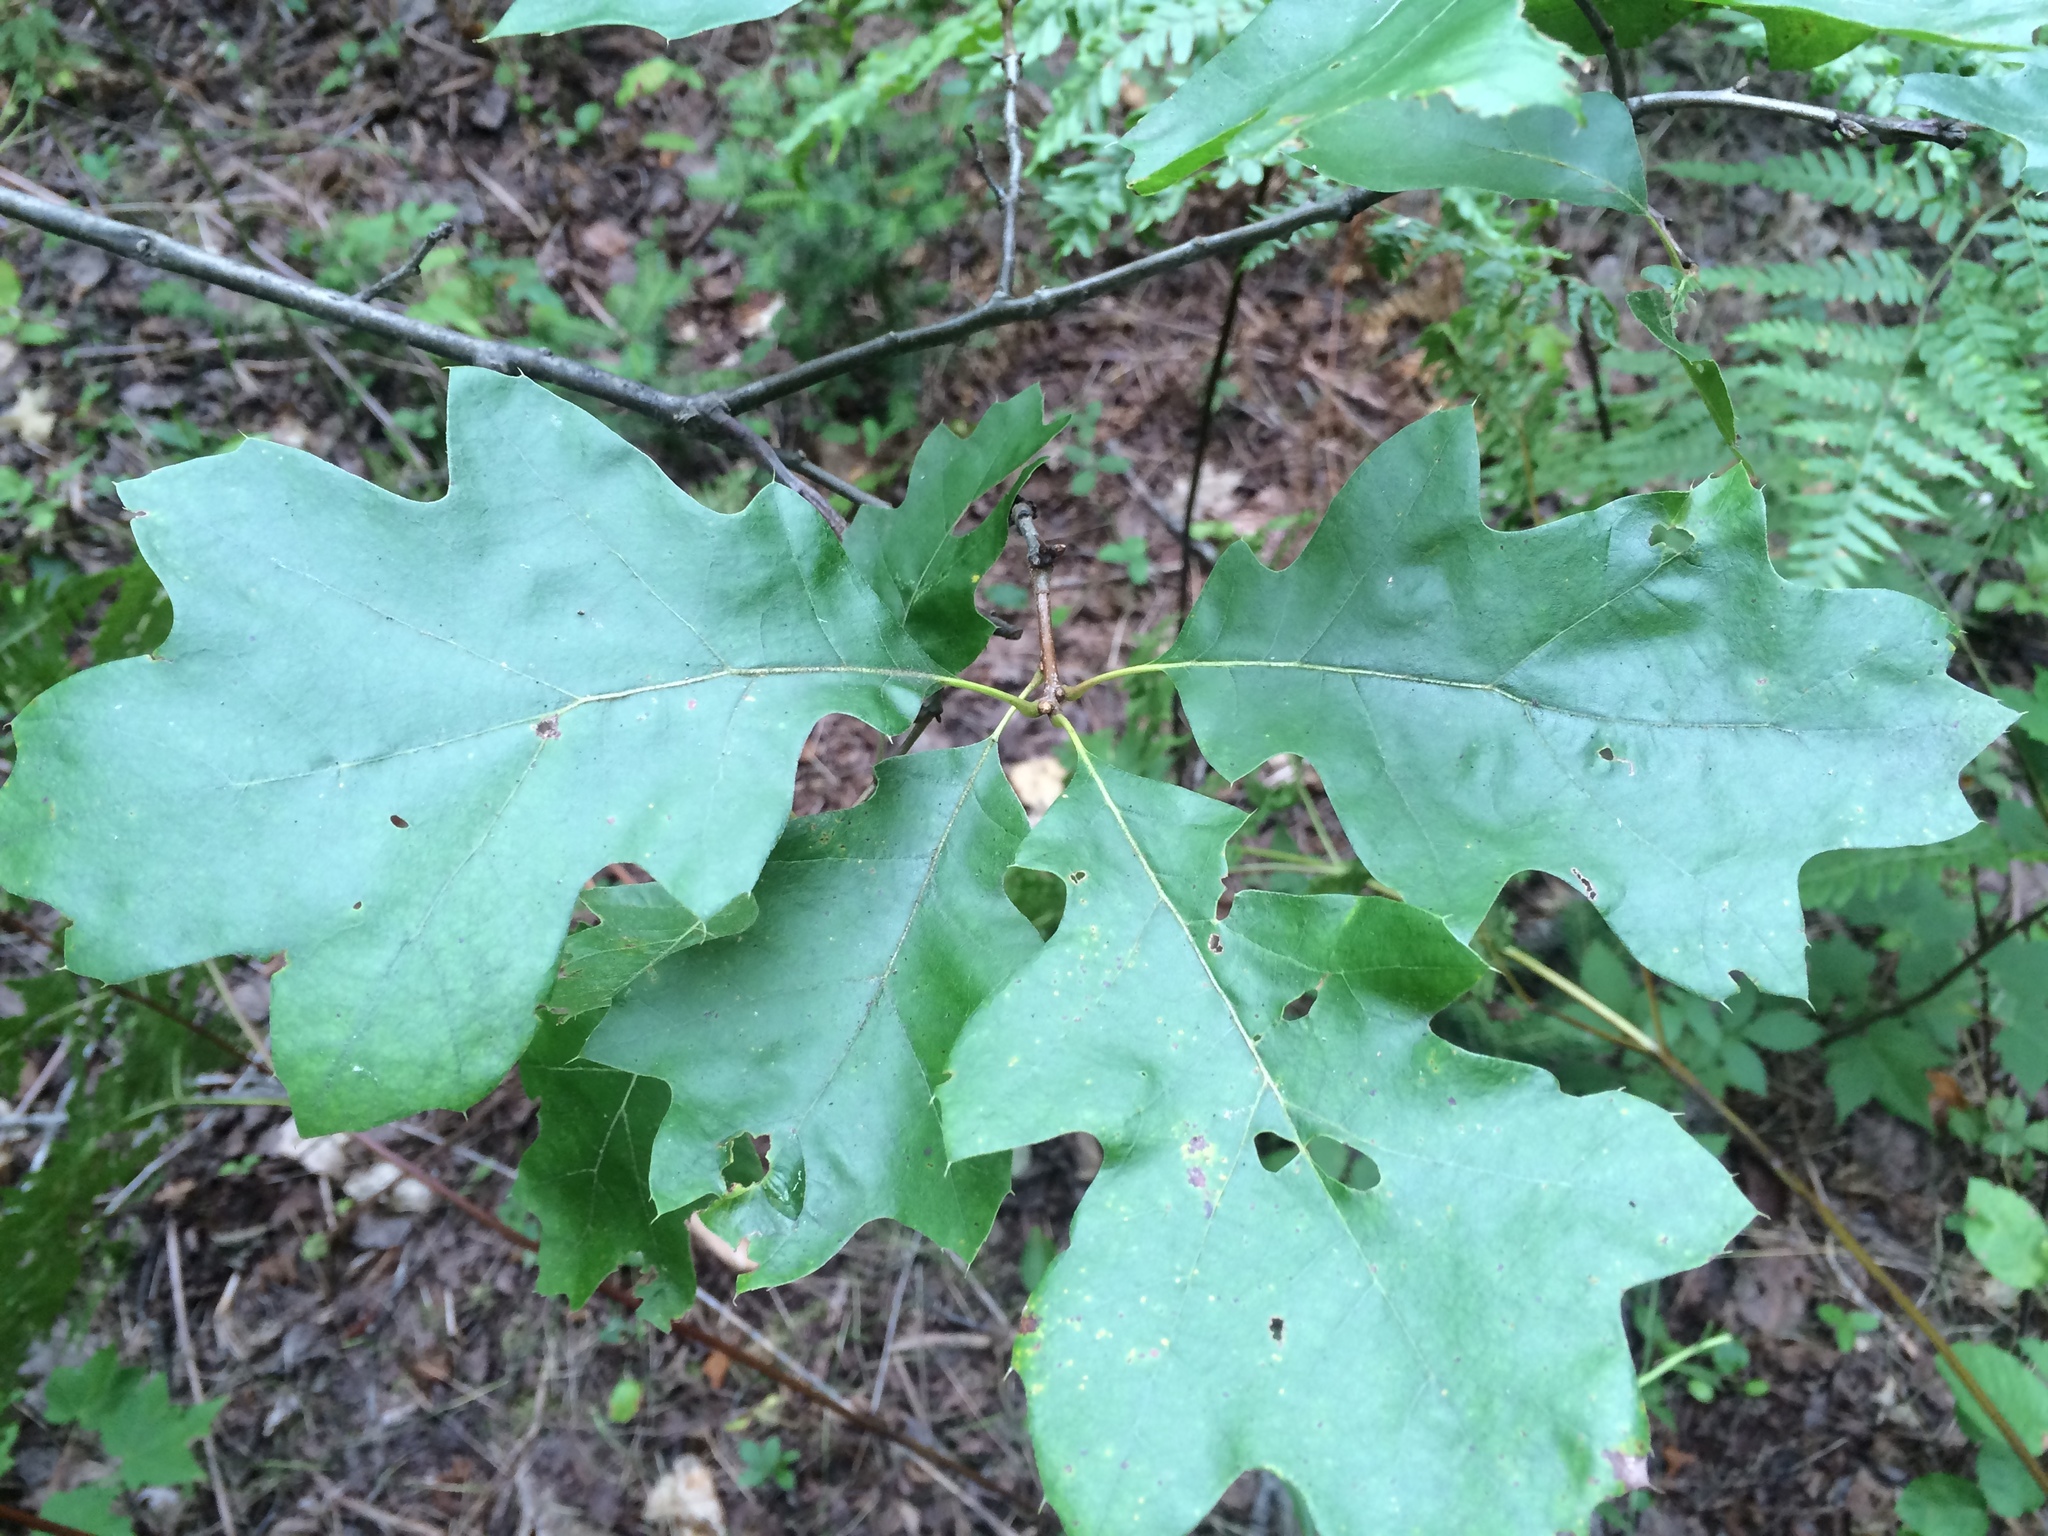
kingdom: Plantae
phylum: Tracheophyta
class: Magnoliopsida
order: Fagales
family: Fagaceae
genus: Quercus
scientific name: Quercus velutina
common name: Black oak
